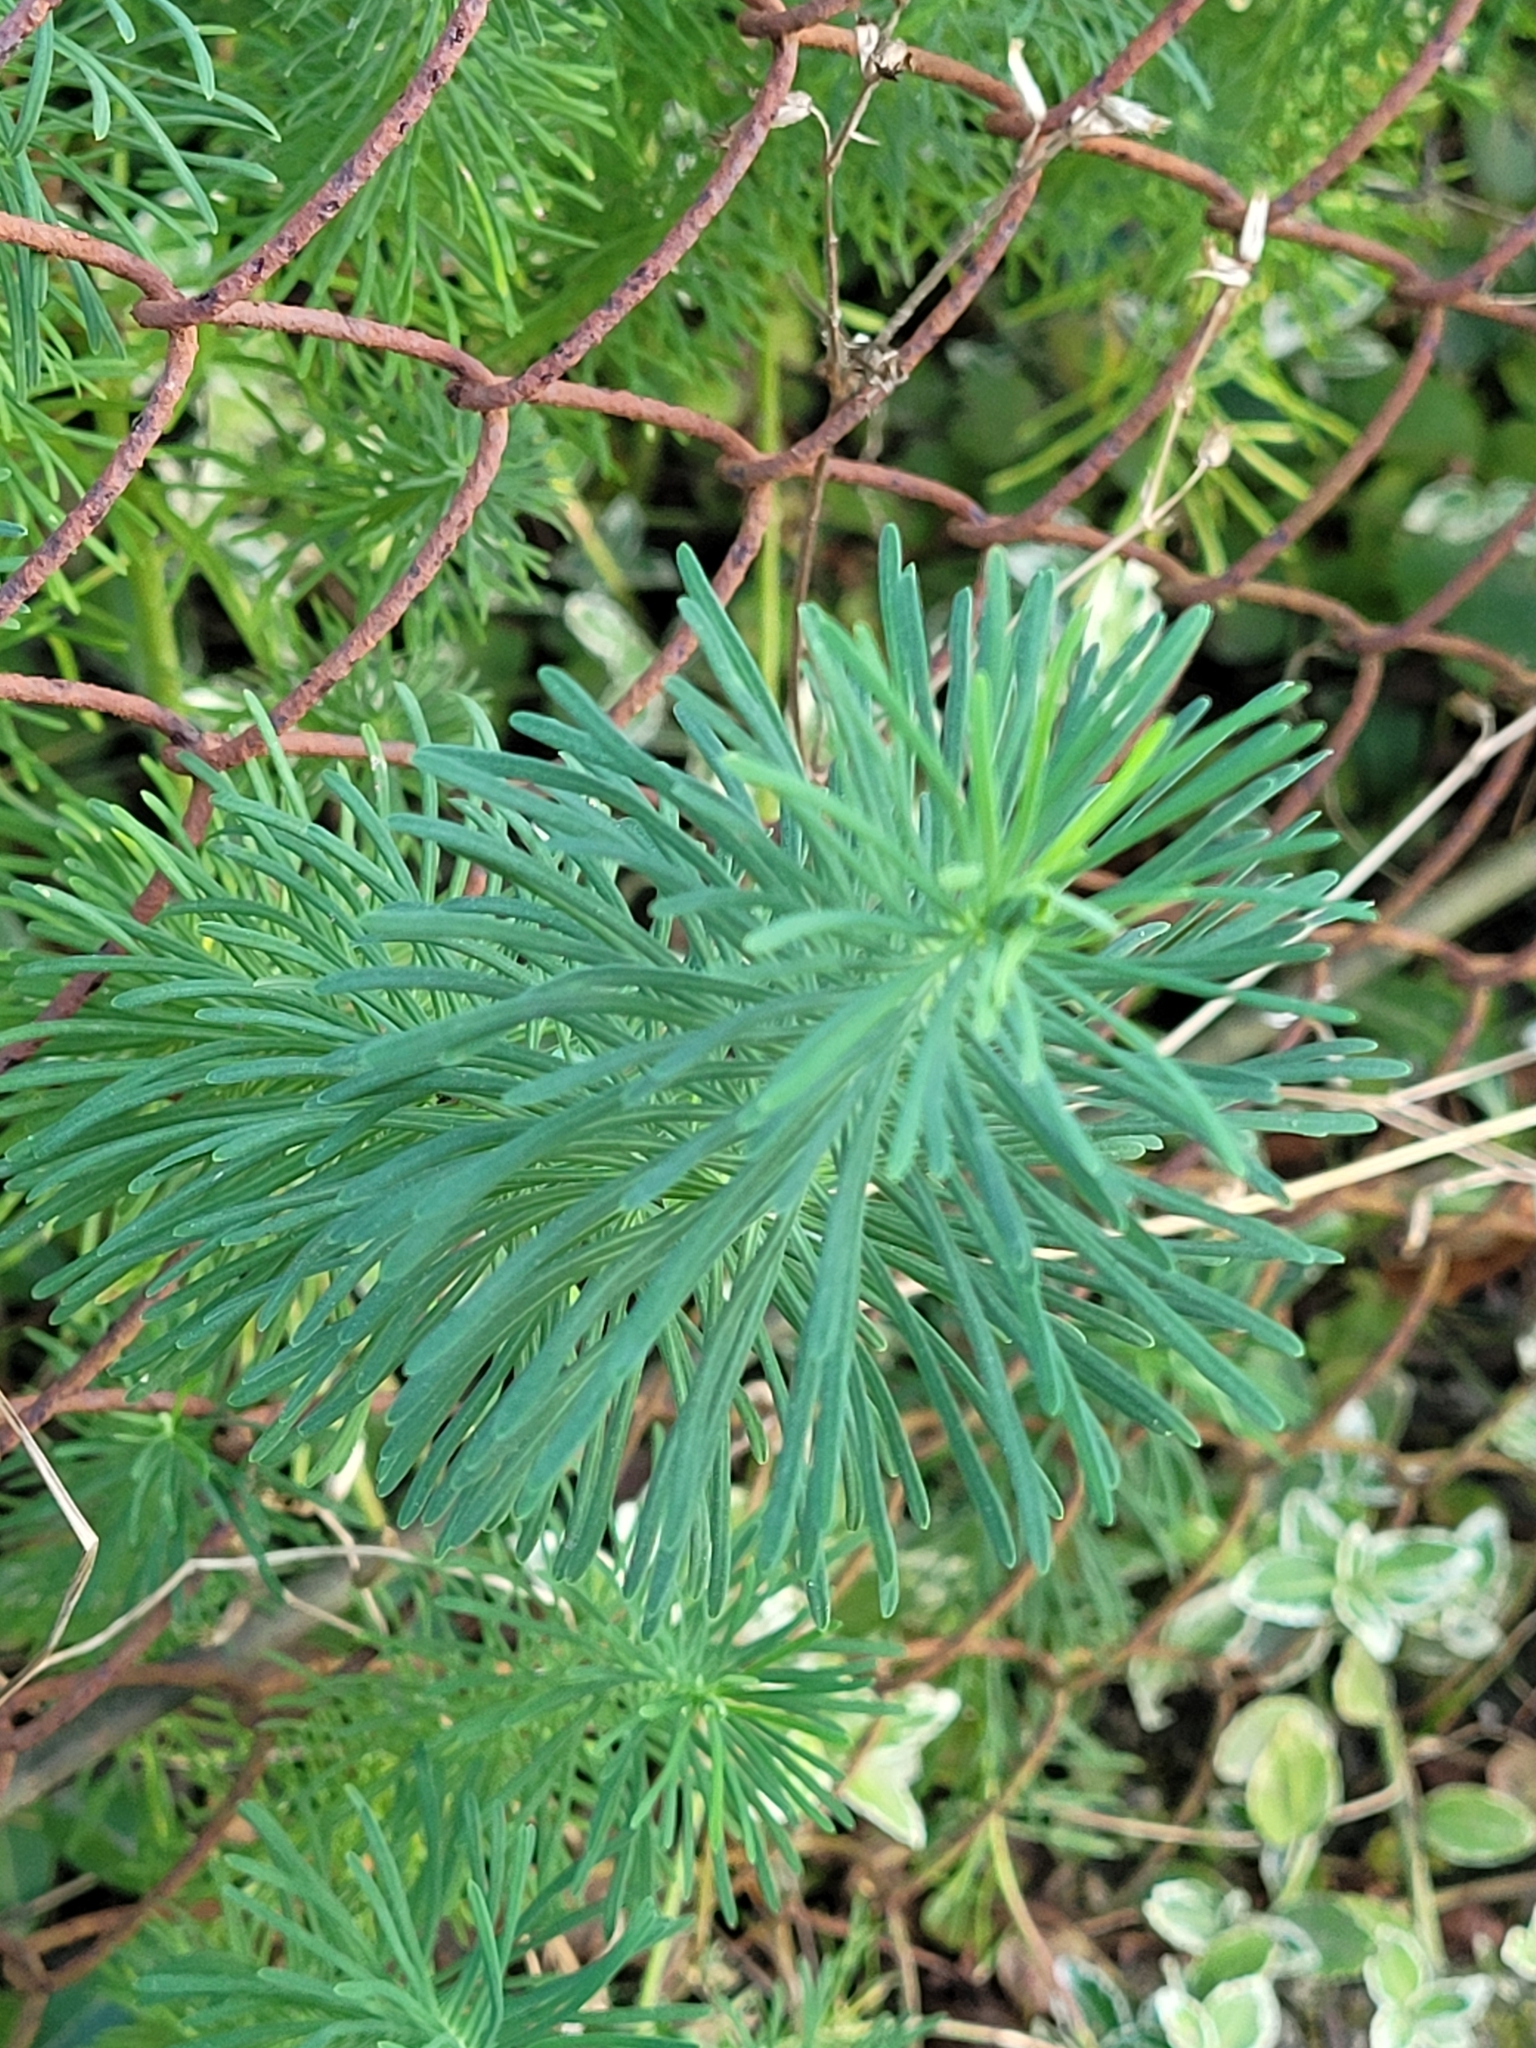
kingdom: Plantae
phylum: Tracheophyta
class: Magnoliopsida
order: Malpighiales
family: Euphorbiaceae
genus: Euphorbia
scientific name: Euphorbia cyparissias
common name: Cypress spurge
